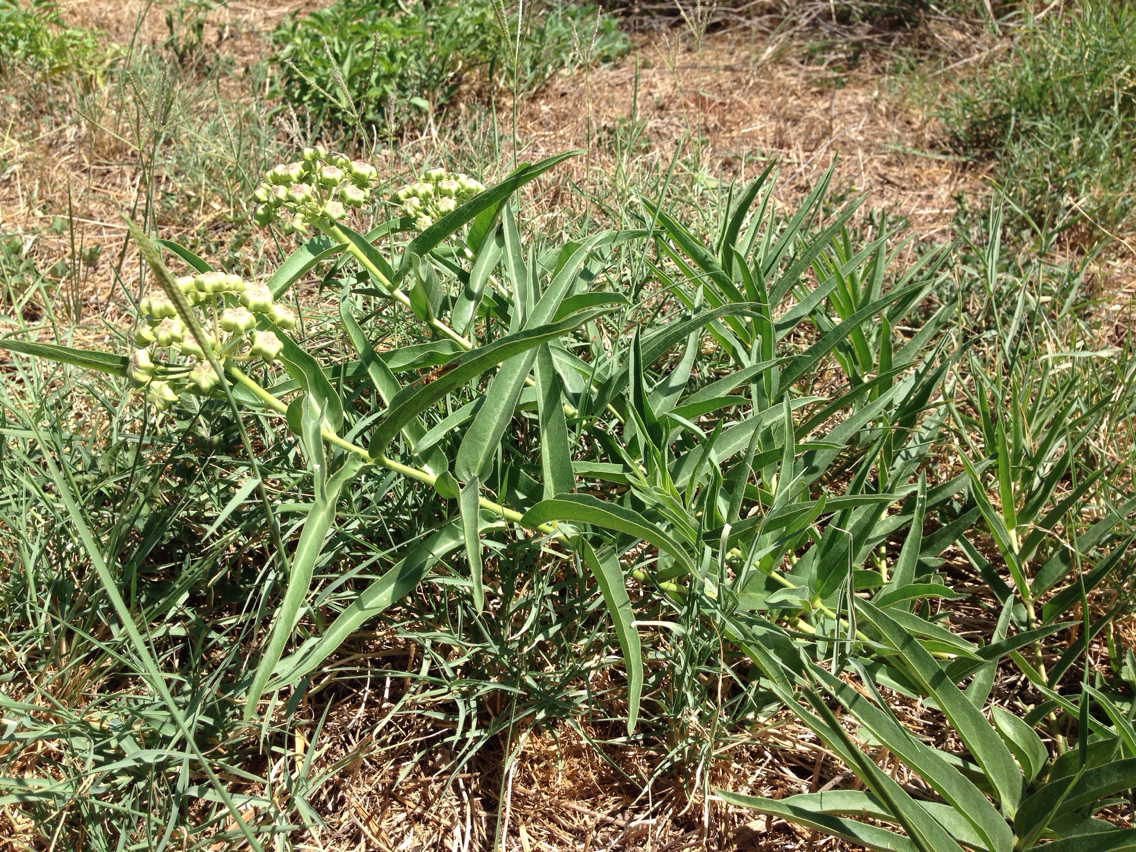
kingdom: Plantae
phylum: Tracheophyta
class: Magnoliopsida
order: Gentianales
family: Apocynaceae
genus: Asclepias
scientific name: Asclepias asperula
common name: Antelope horns
